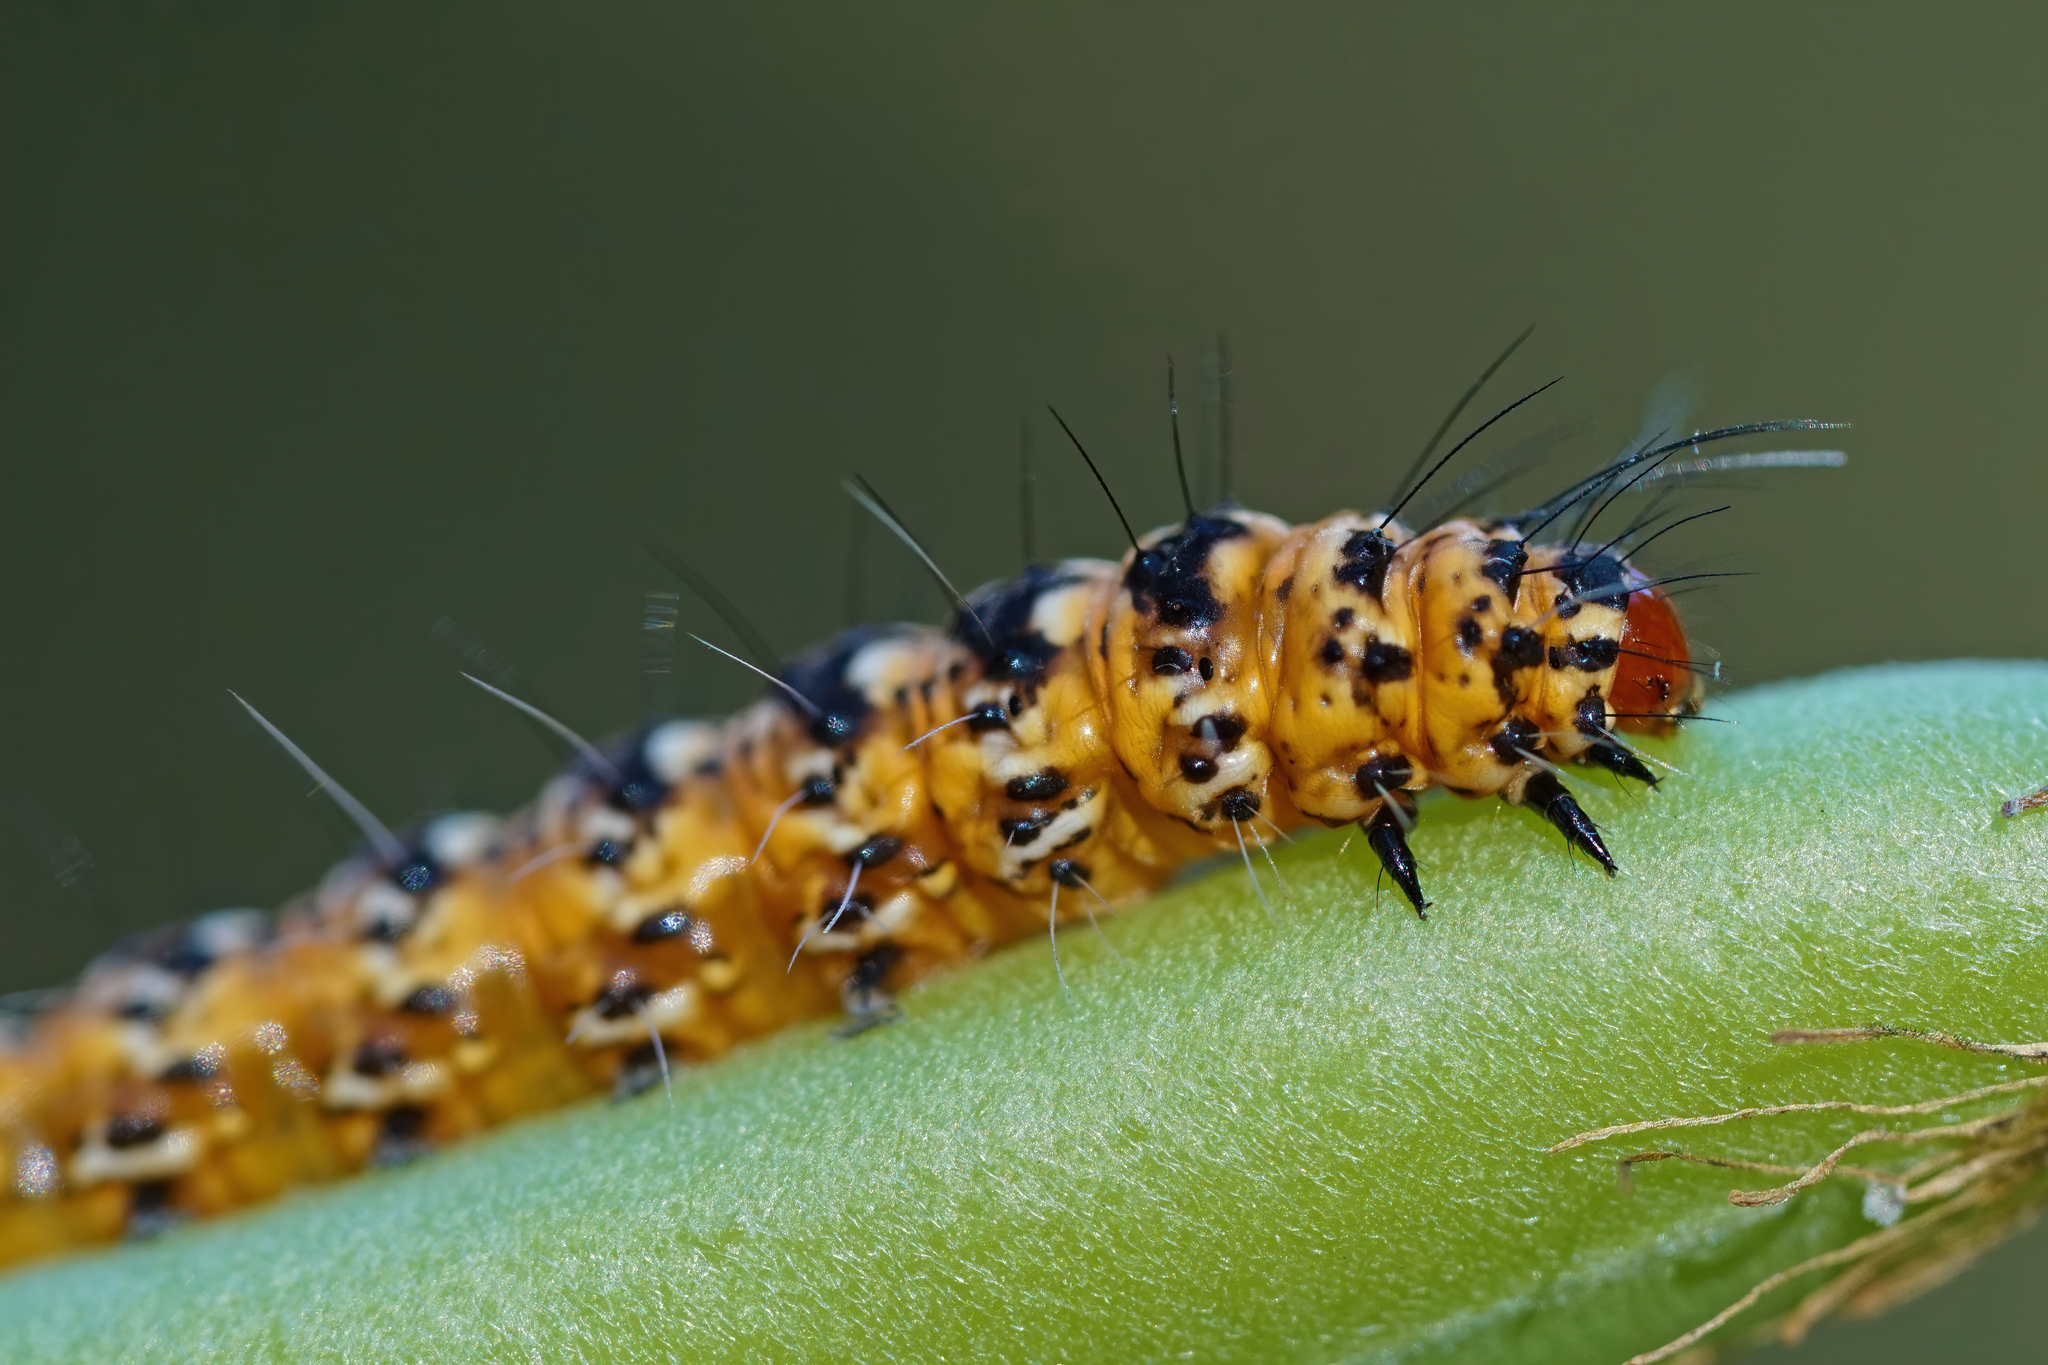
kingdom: Animalia
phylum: Arthropoda
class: Insecta
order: Lepidoptera
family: Erebidae
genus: Utetheisa
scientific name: Utetheisa ornatrix
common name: Beautiful utetheisa
